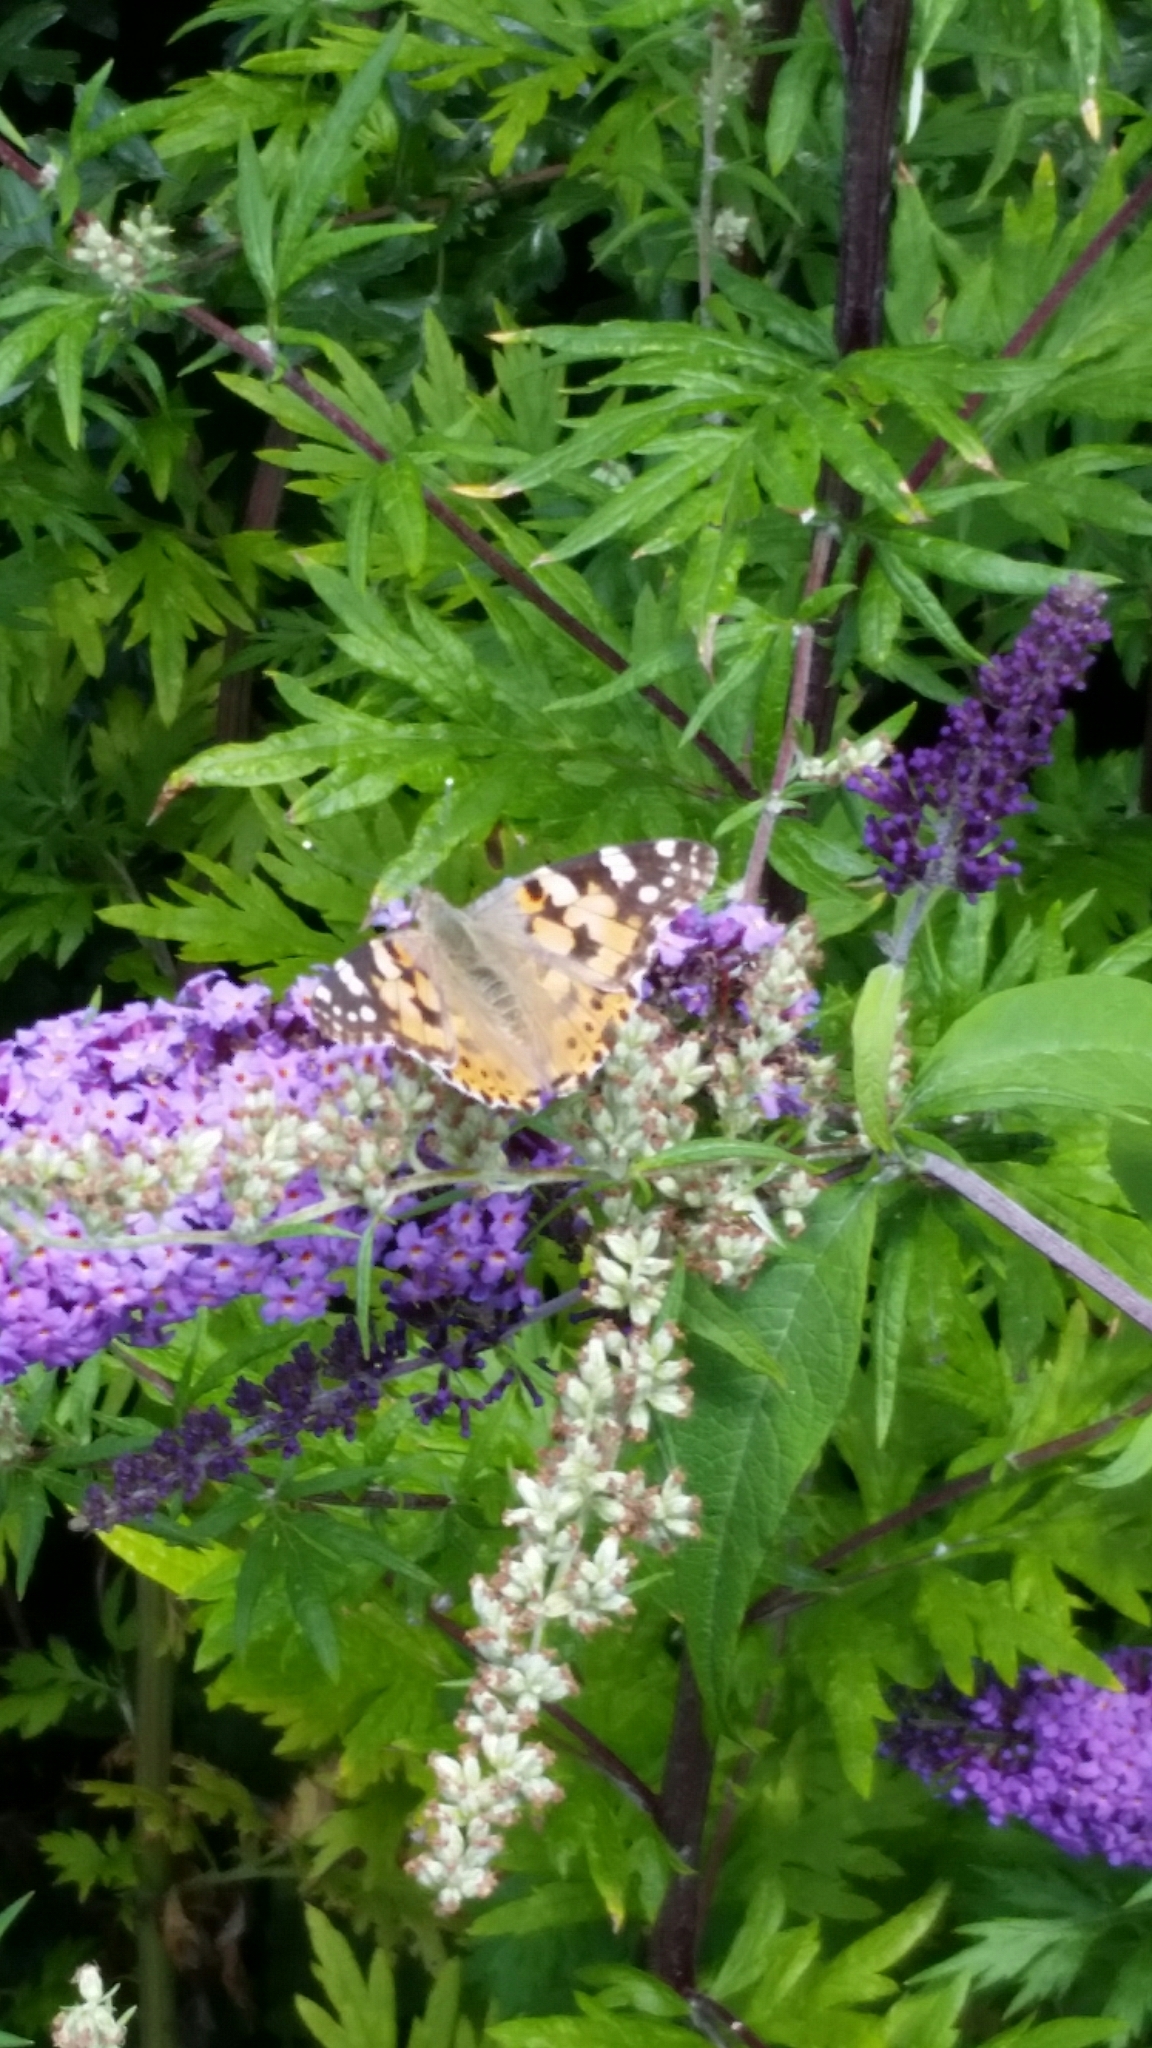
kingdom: Animalia
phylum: Arthropoda
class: Insecta
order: Lepidoptera
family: Nymphalidae
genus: Vanessa
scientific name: Vanessa cardui
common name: Painted lady
